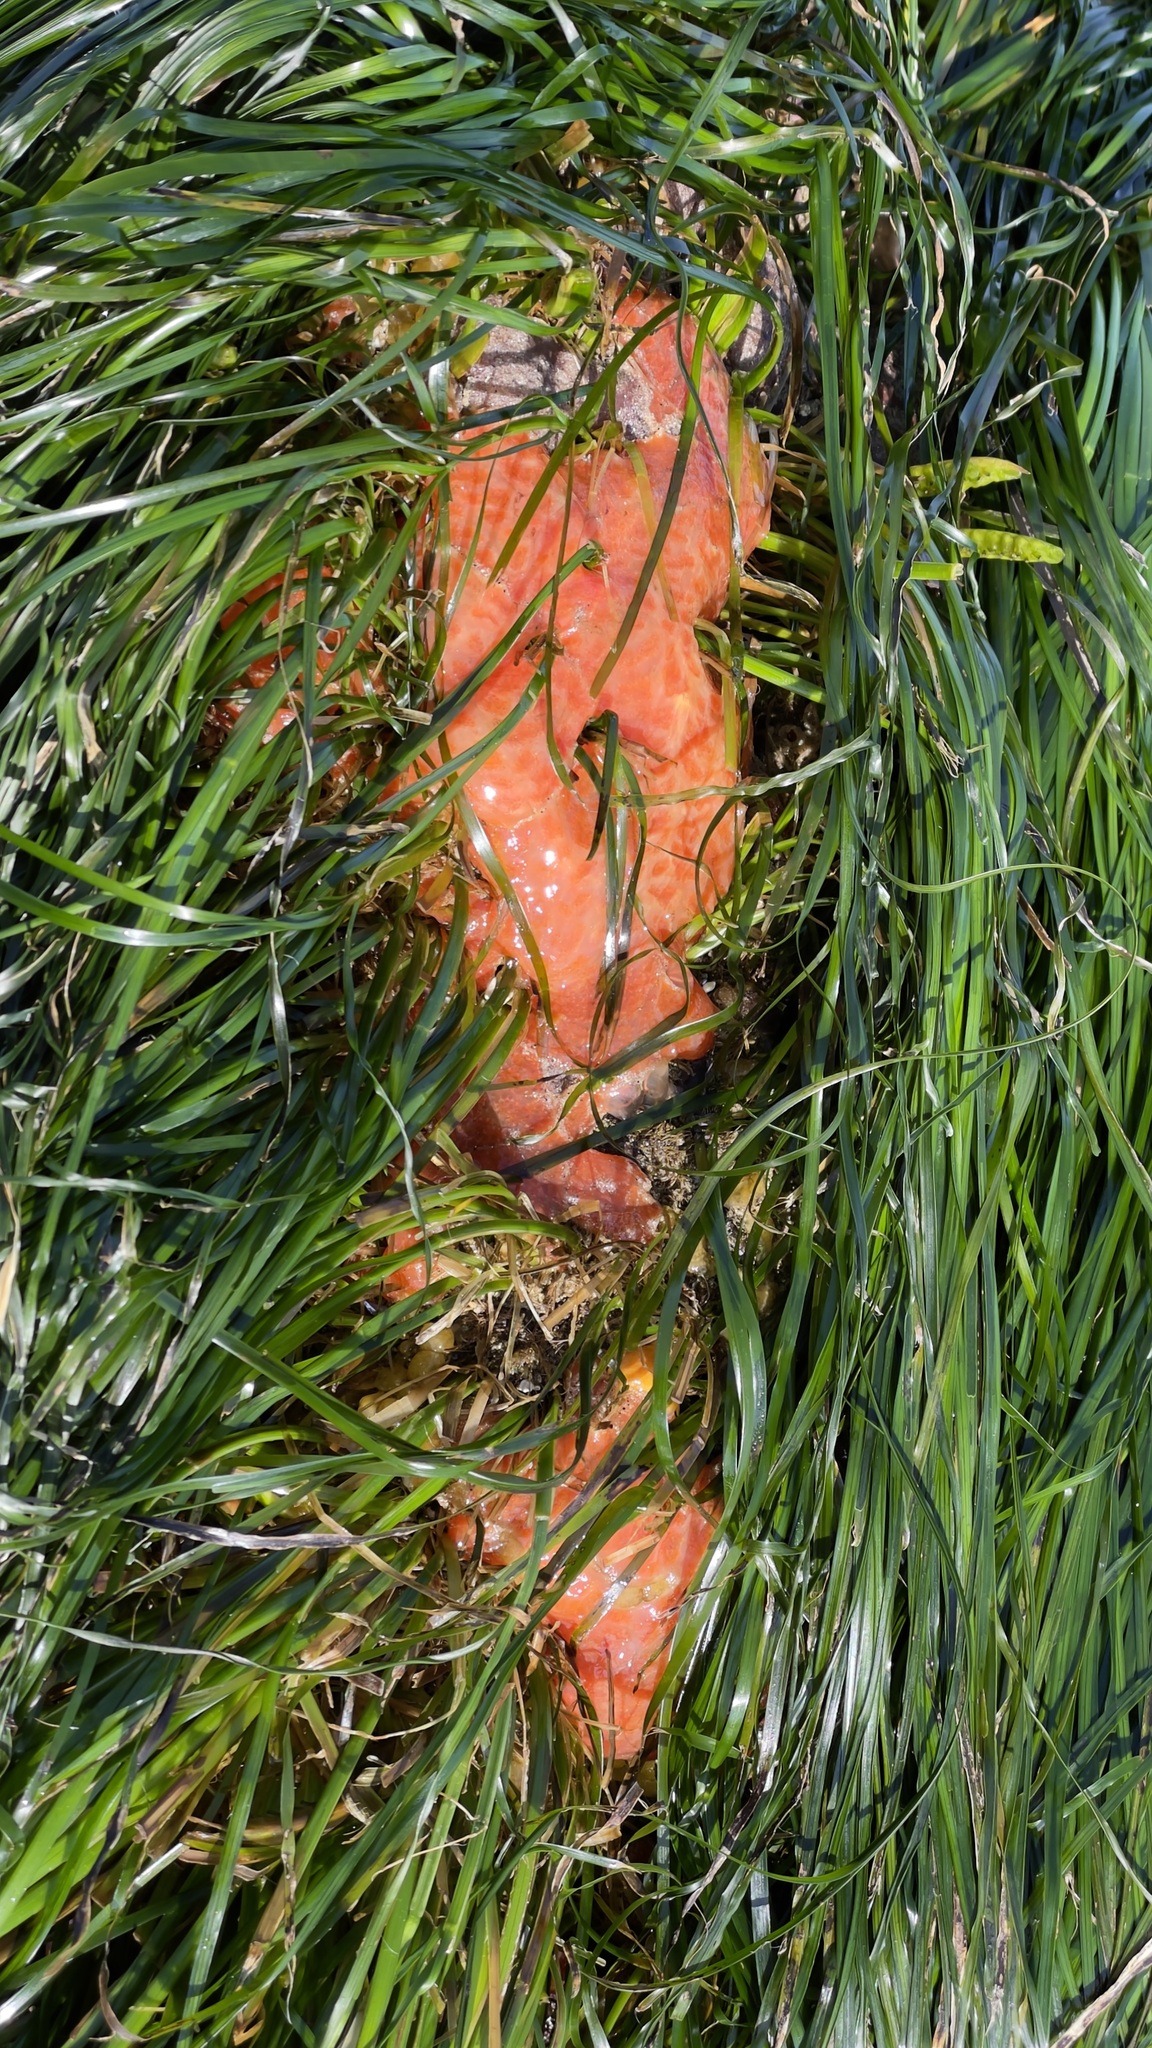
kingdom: Plantae
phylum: Tracheophyta
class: Liliopsida
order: Alismatales
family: Zosteraceae
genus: Phyllospadix
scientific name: Phyllospadix scouleri
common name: Species code: ps
